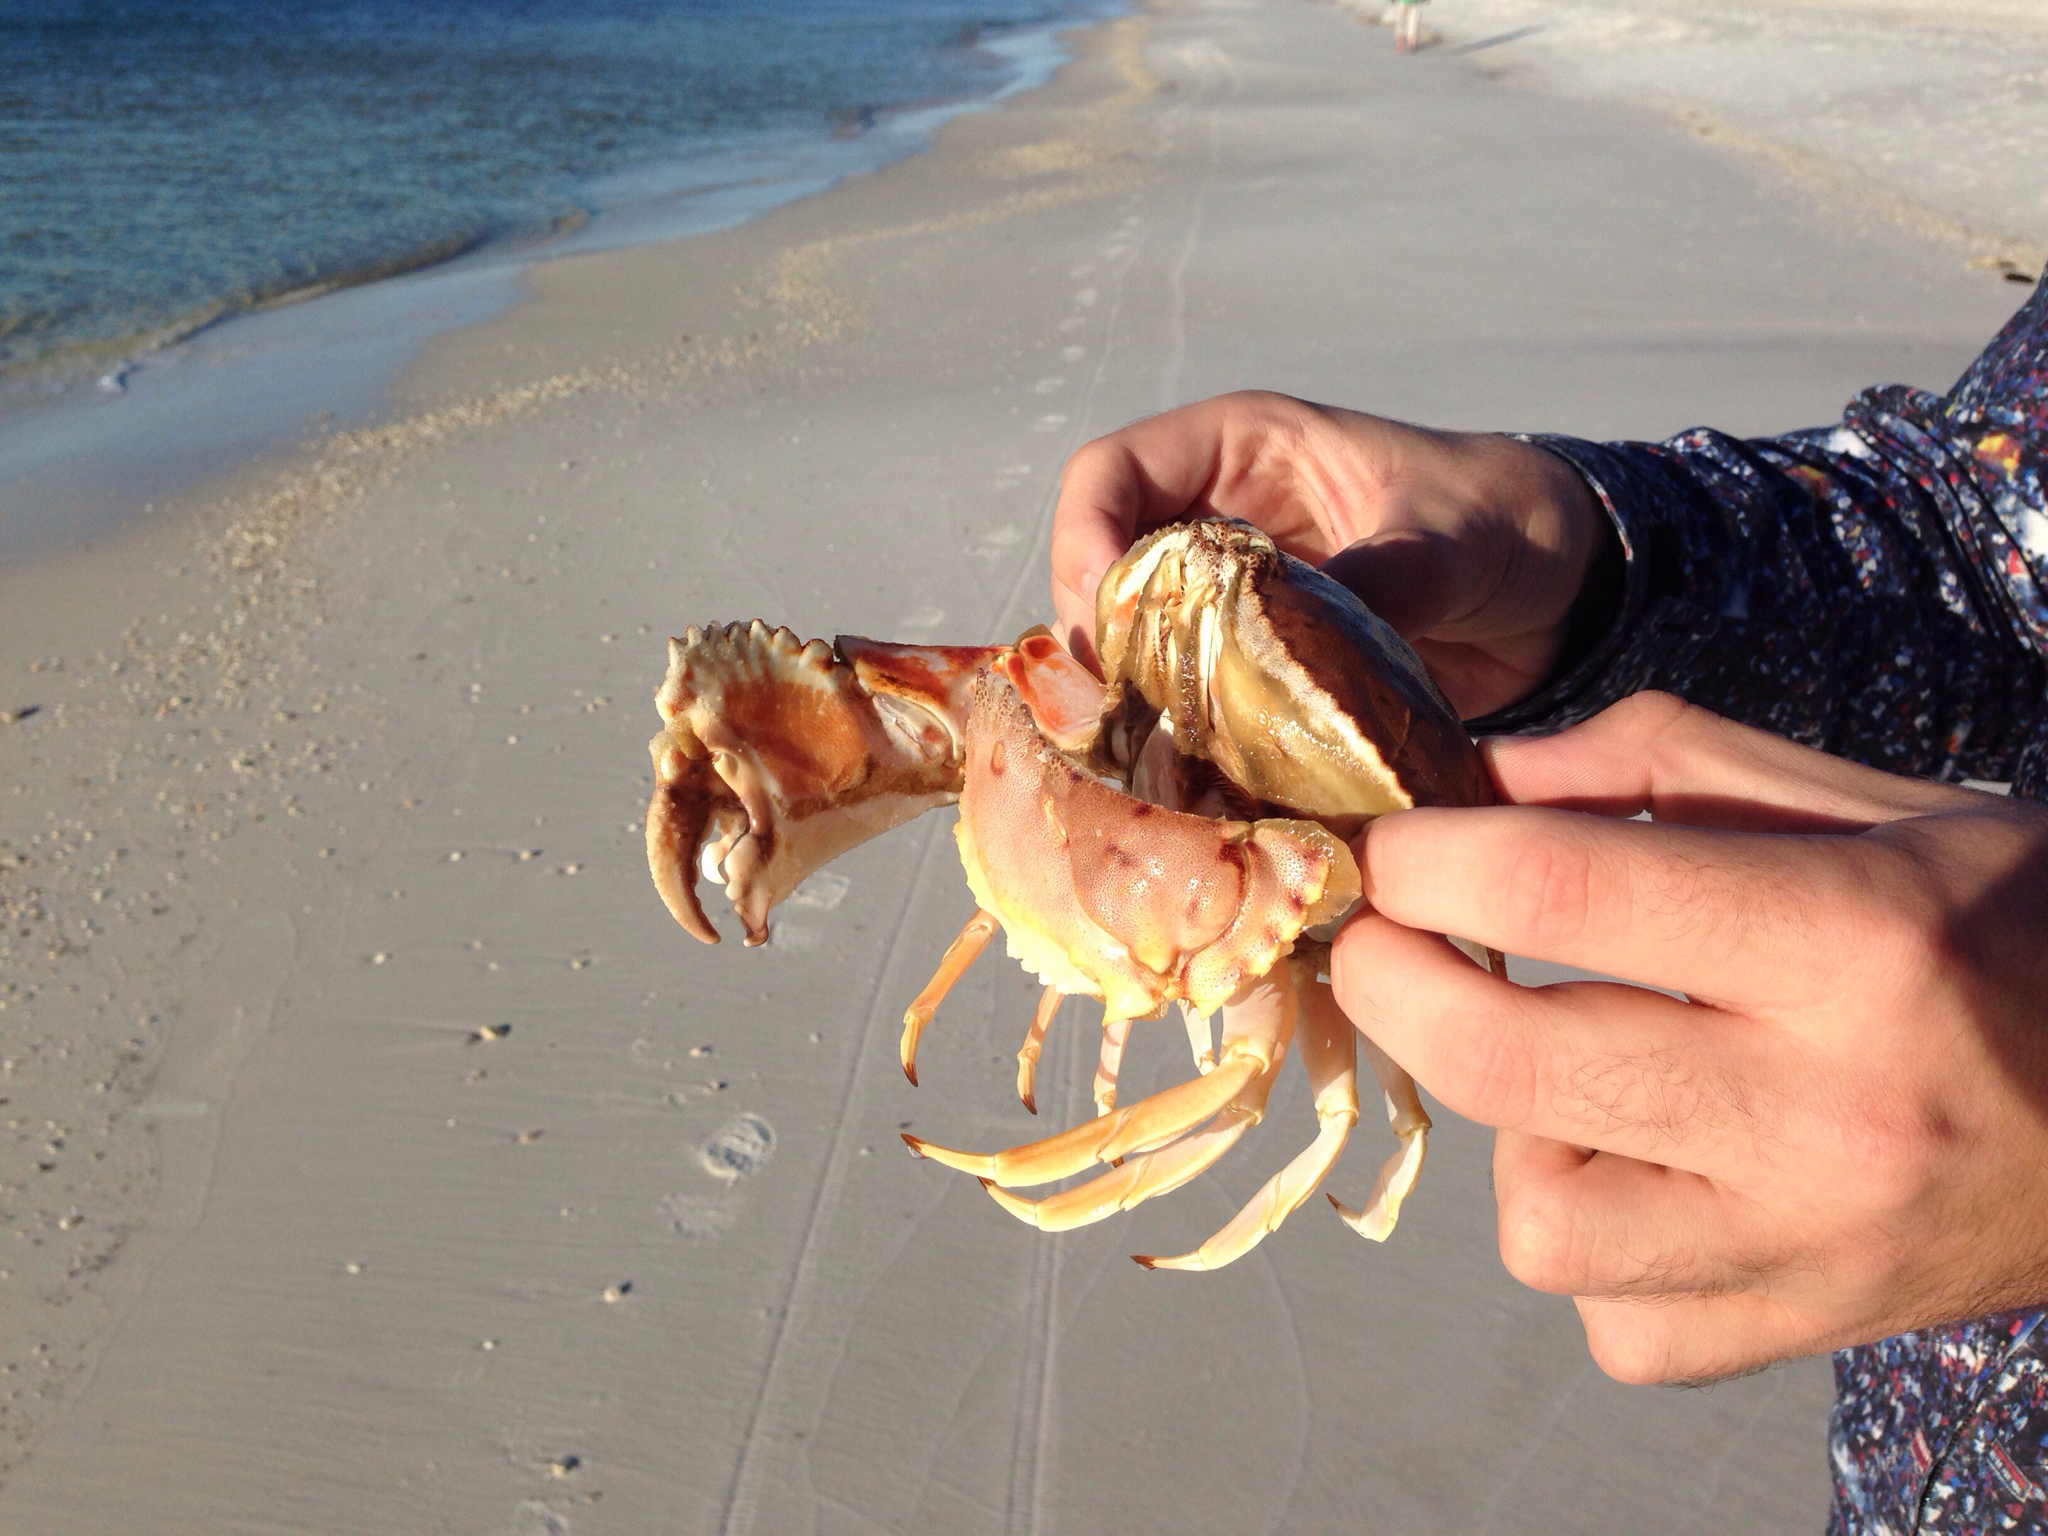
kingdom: Animalia
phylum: Arthropoda
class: Malacostraca
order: Decapoda
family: Calappidae
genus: Calappa
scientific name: Calappa sulcata
